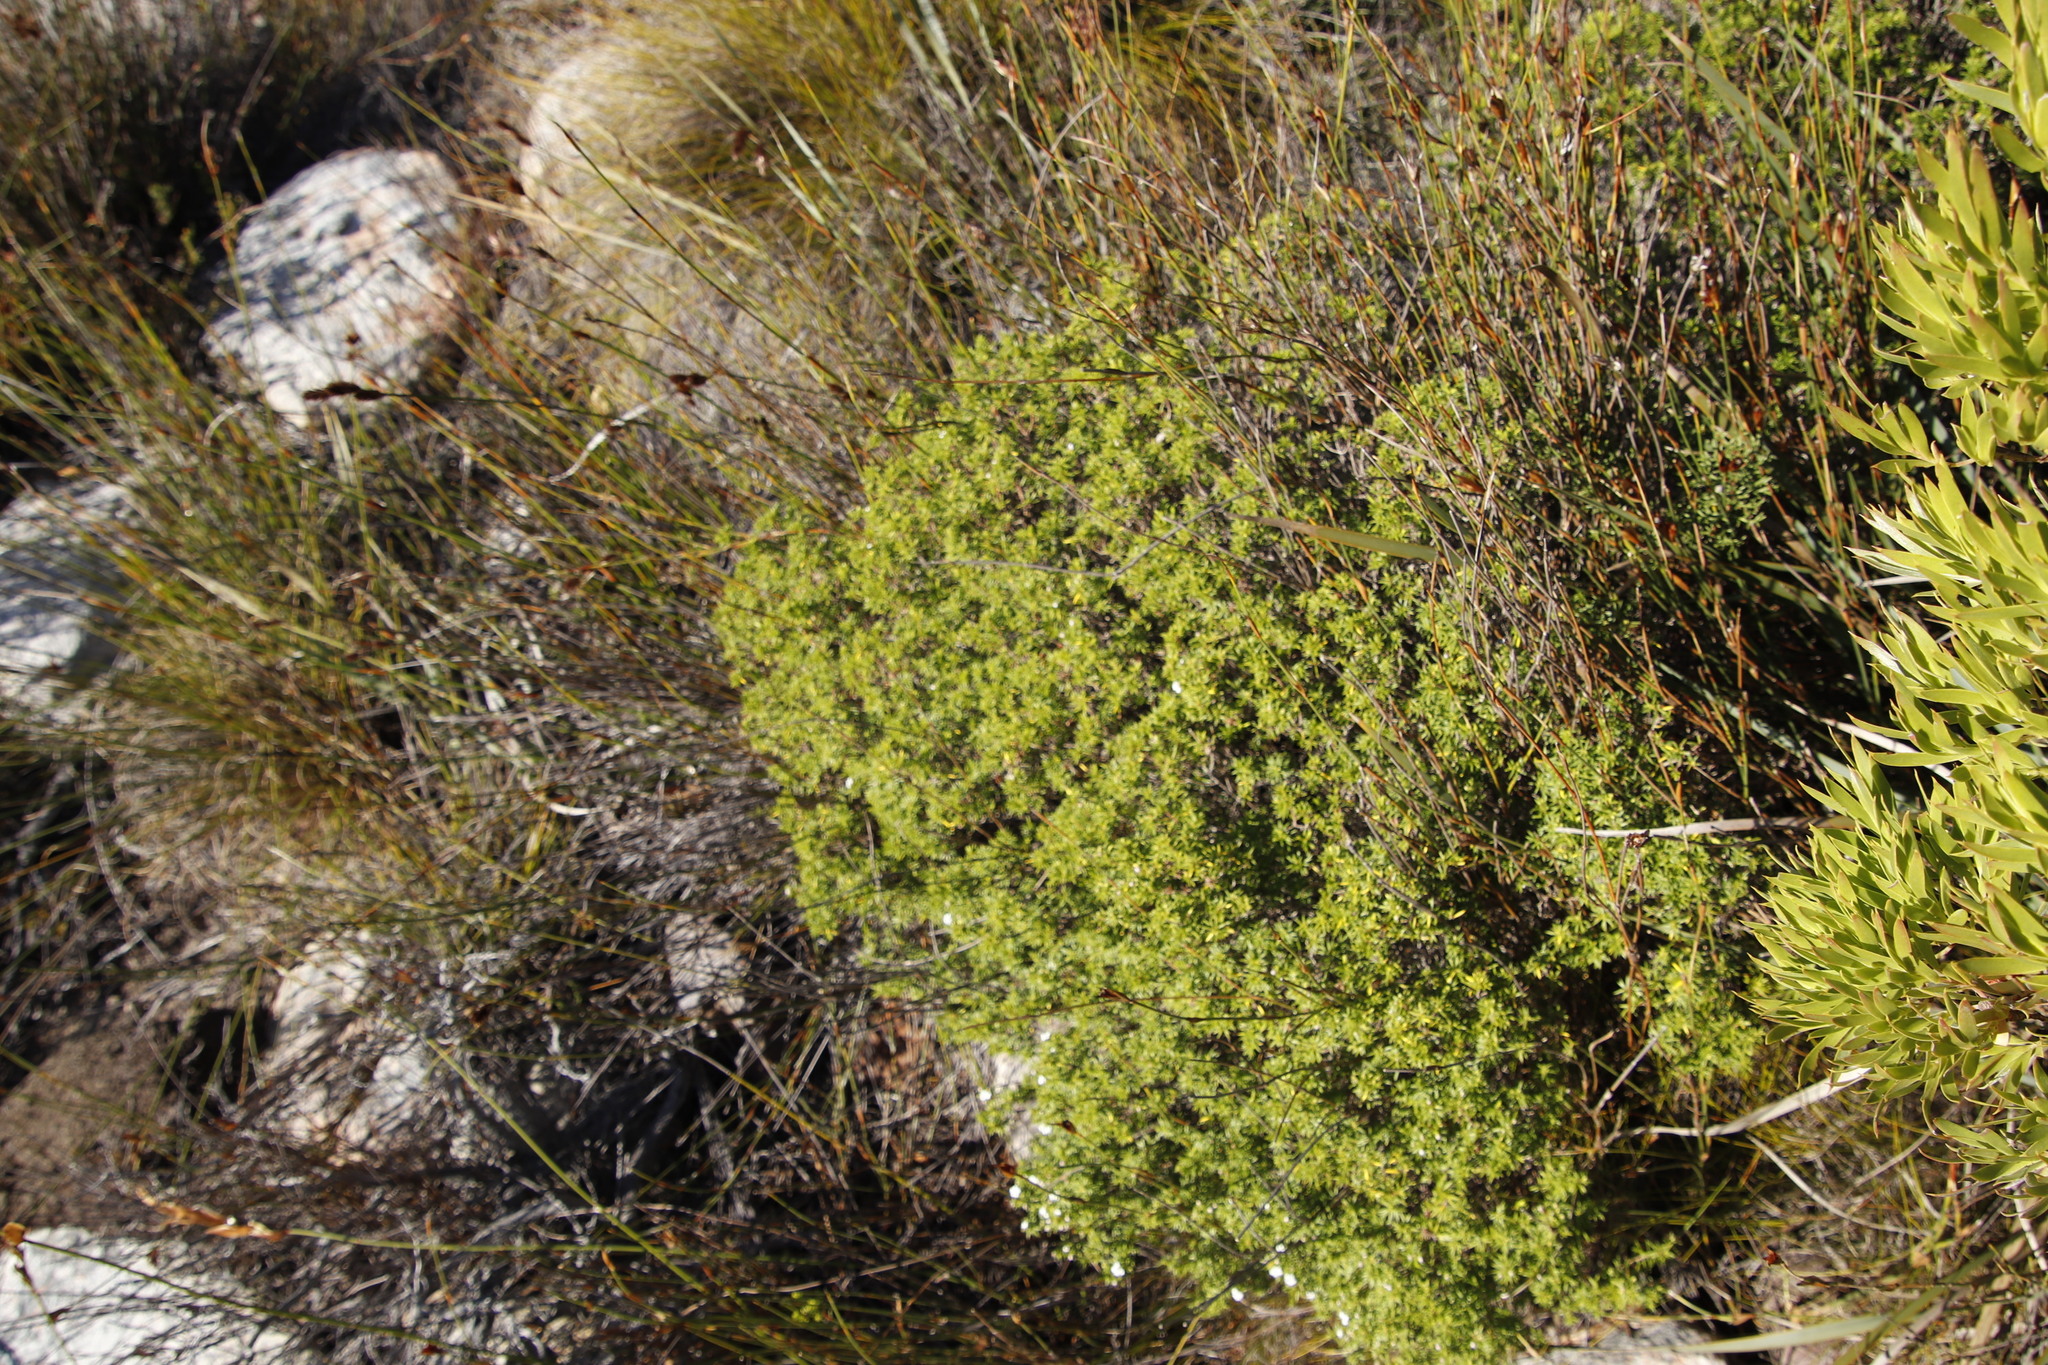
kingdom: Plantae
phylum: Tracheophyta
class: Magnoliopsida
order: Sapindales
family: Rutaceae
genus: Coleonema
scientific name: Coleonema album
